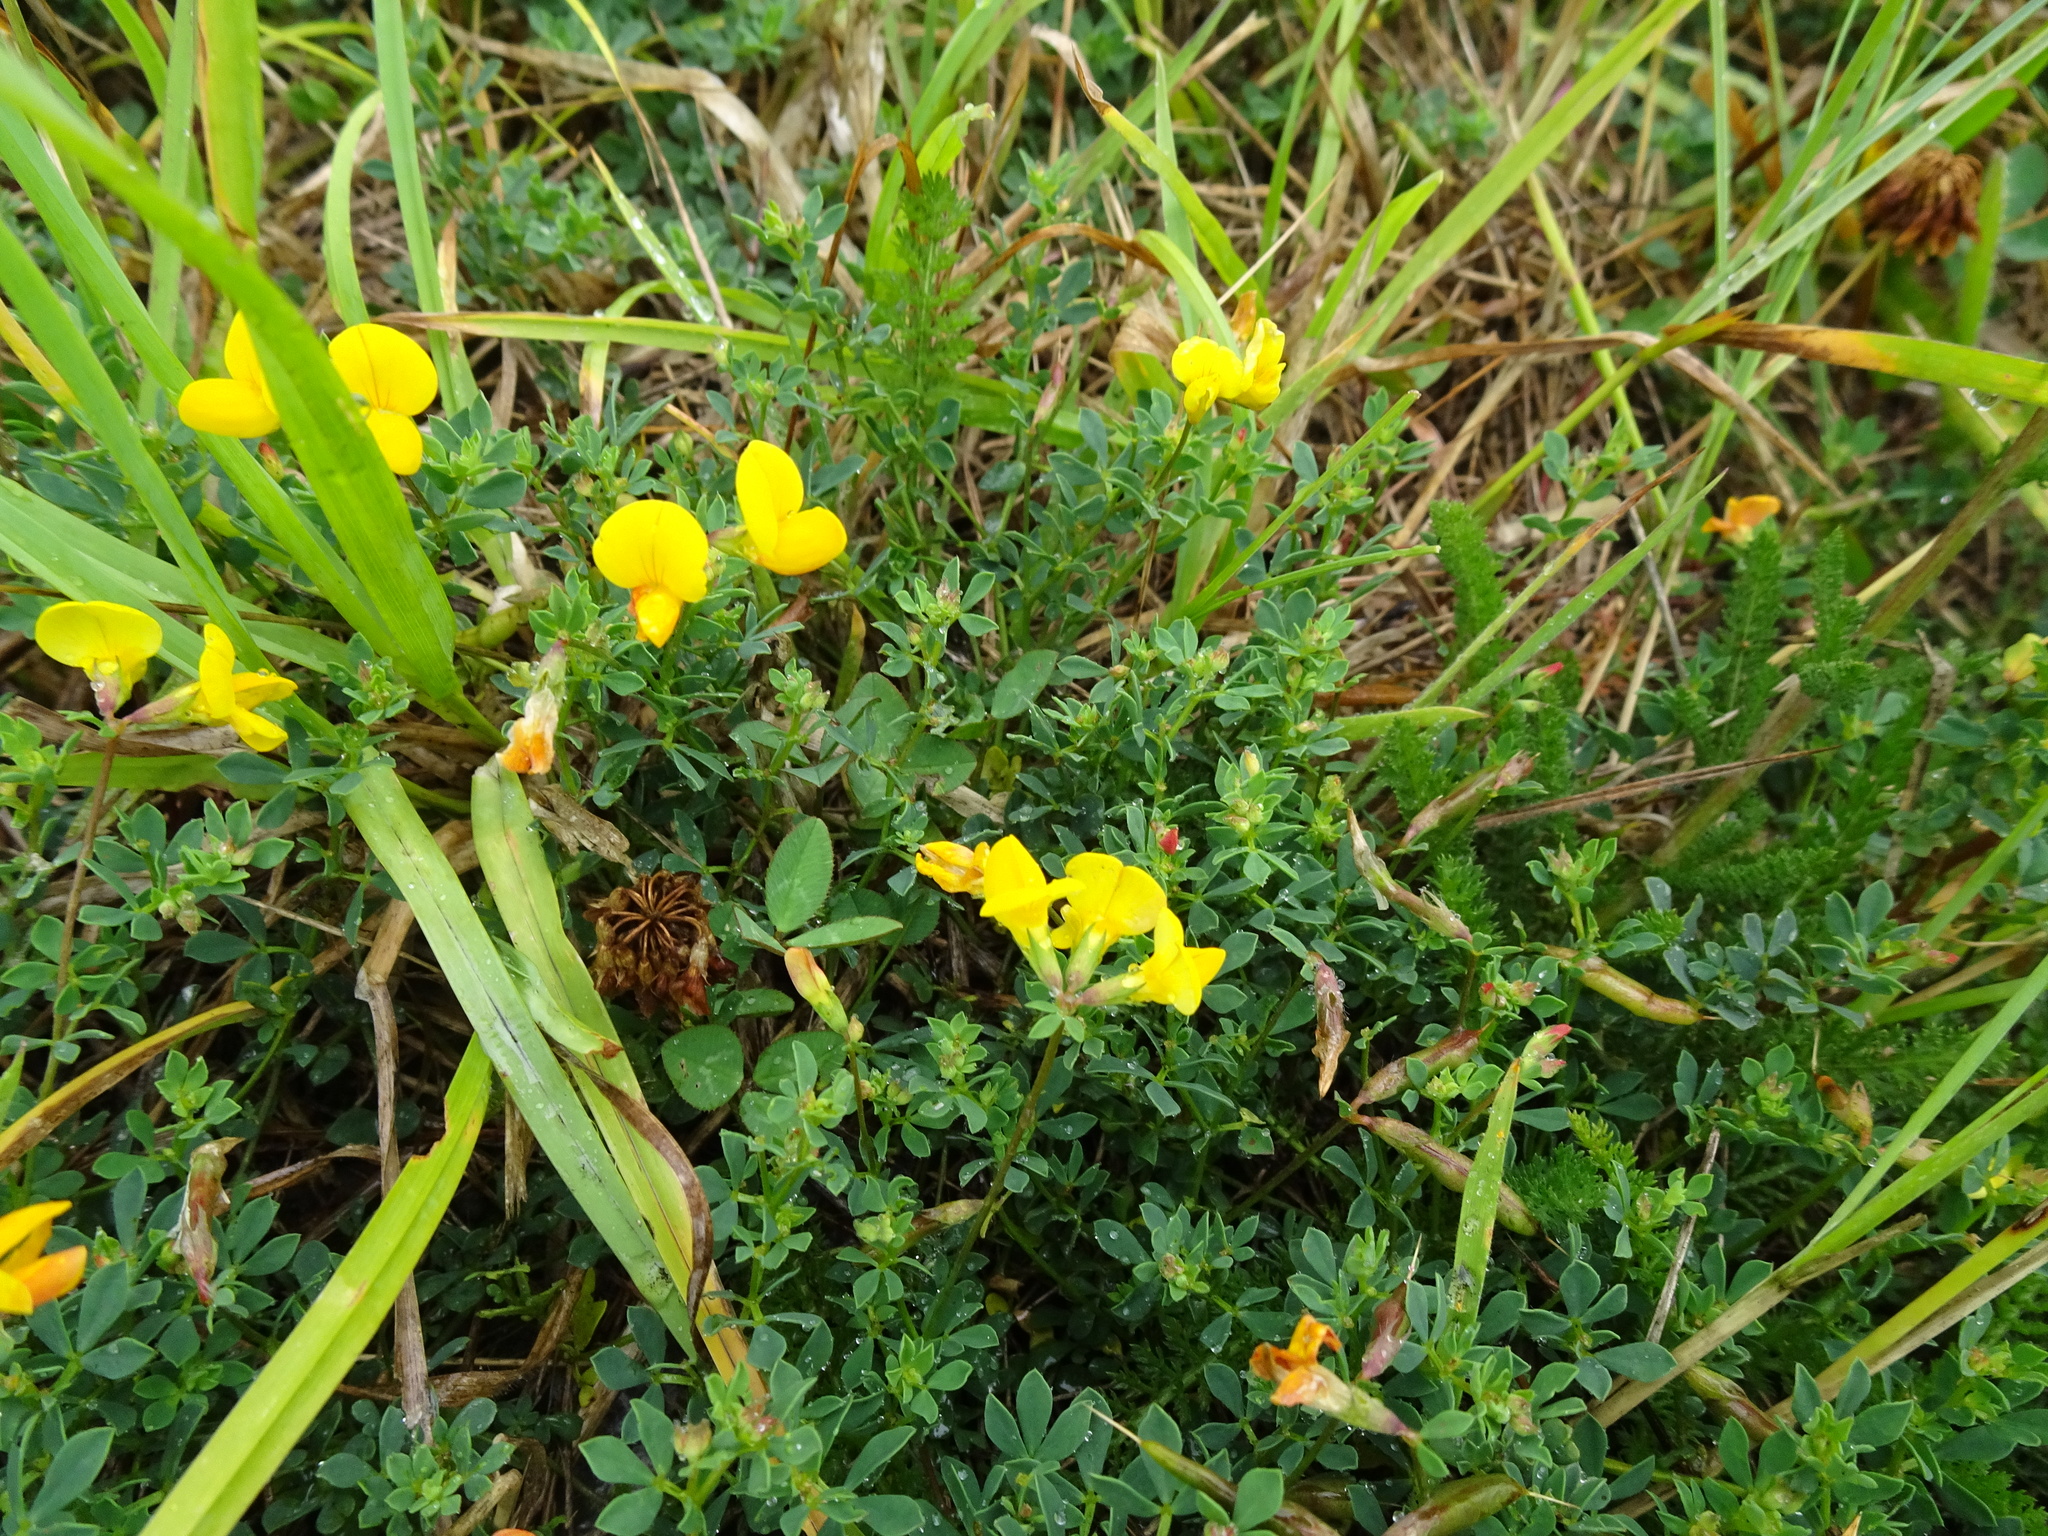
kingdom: Plantae
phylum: Tracheophyta
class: Magnoliopsida
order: Fabales
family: Fabaceae
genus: Lotus
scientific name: Lotus corniculatus
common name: Common bird's-foot-trefoil
